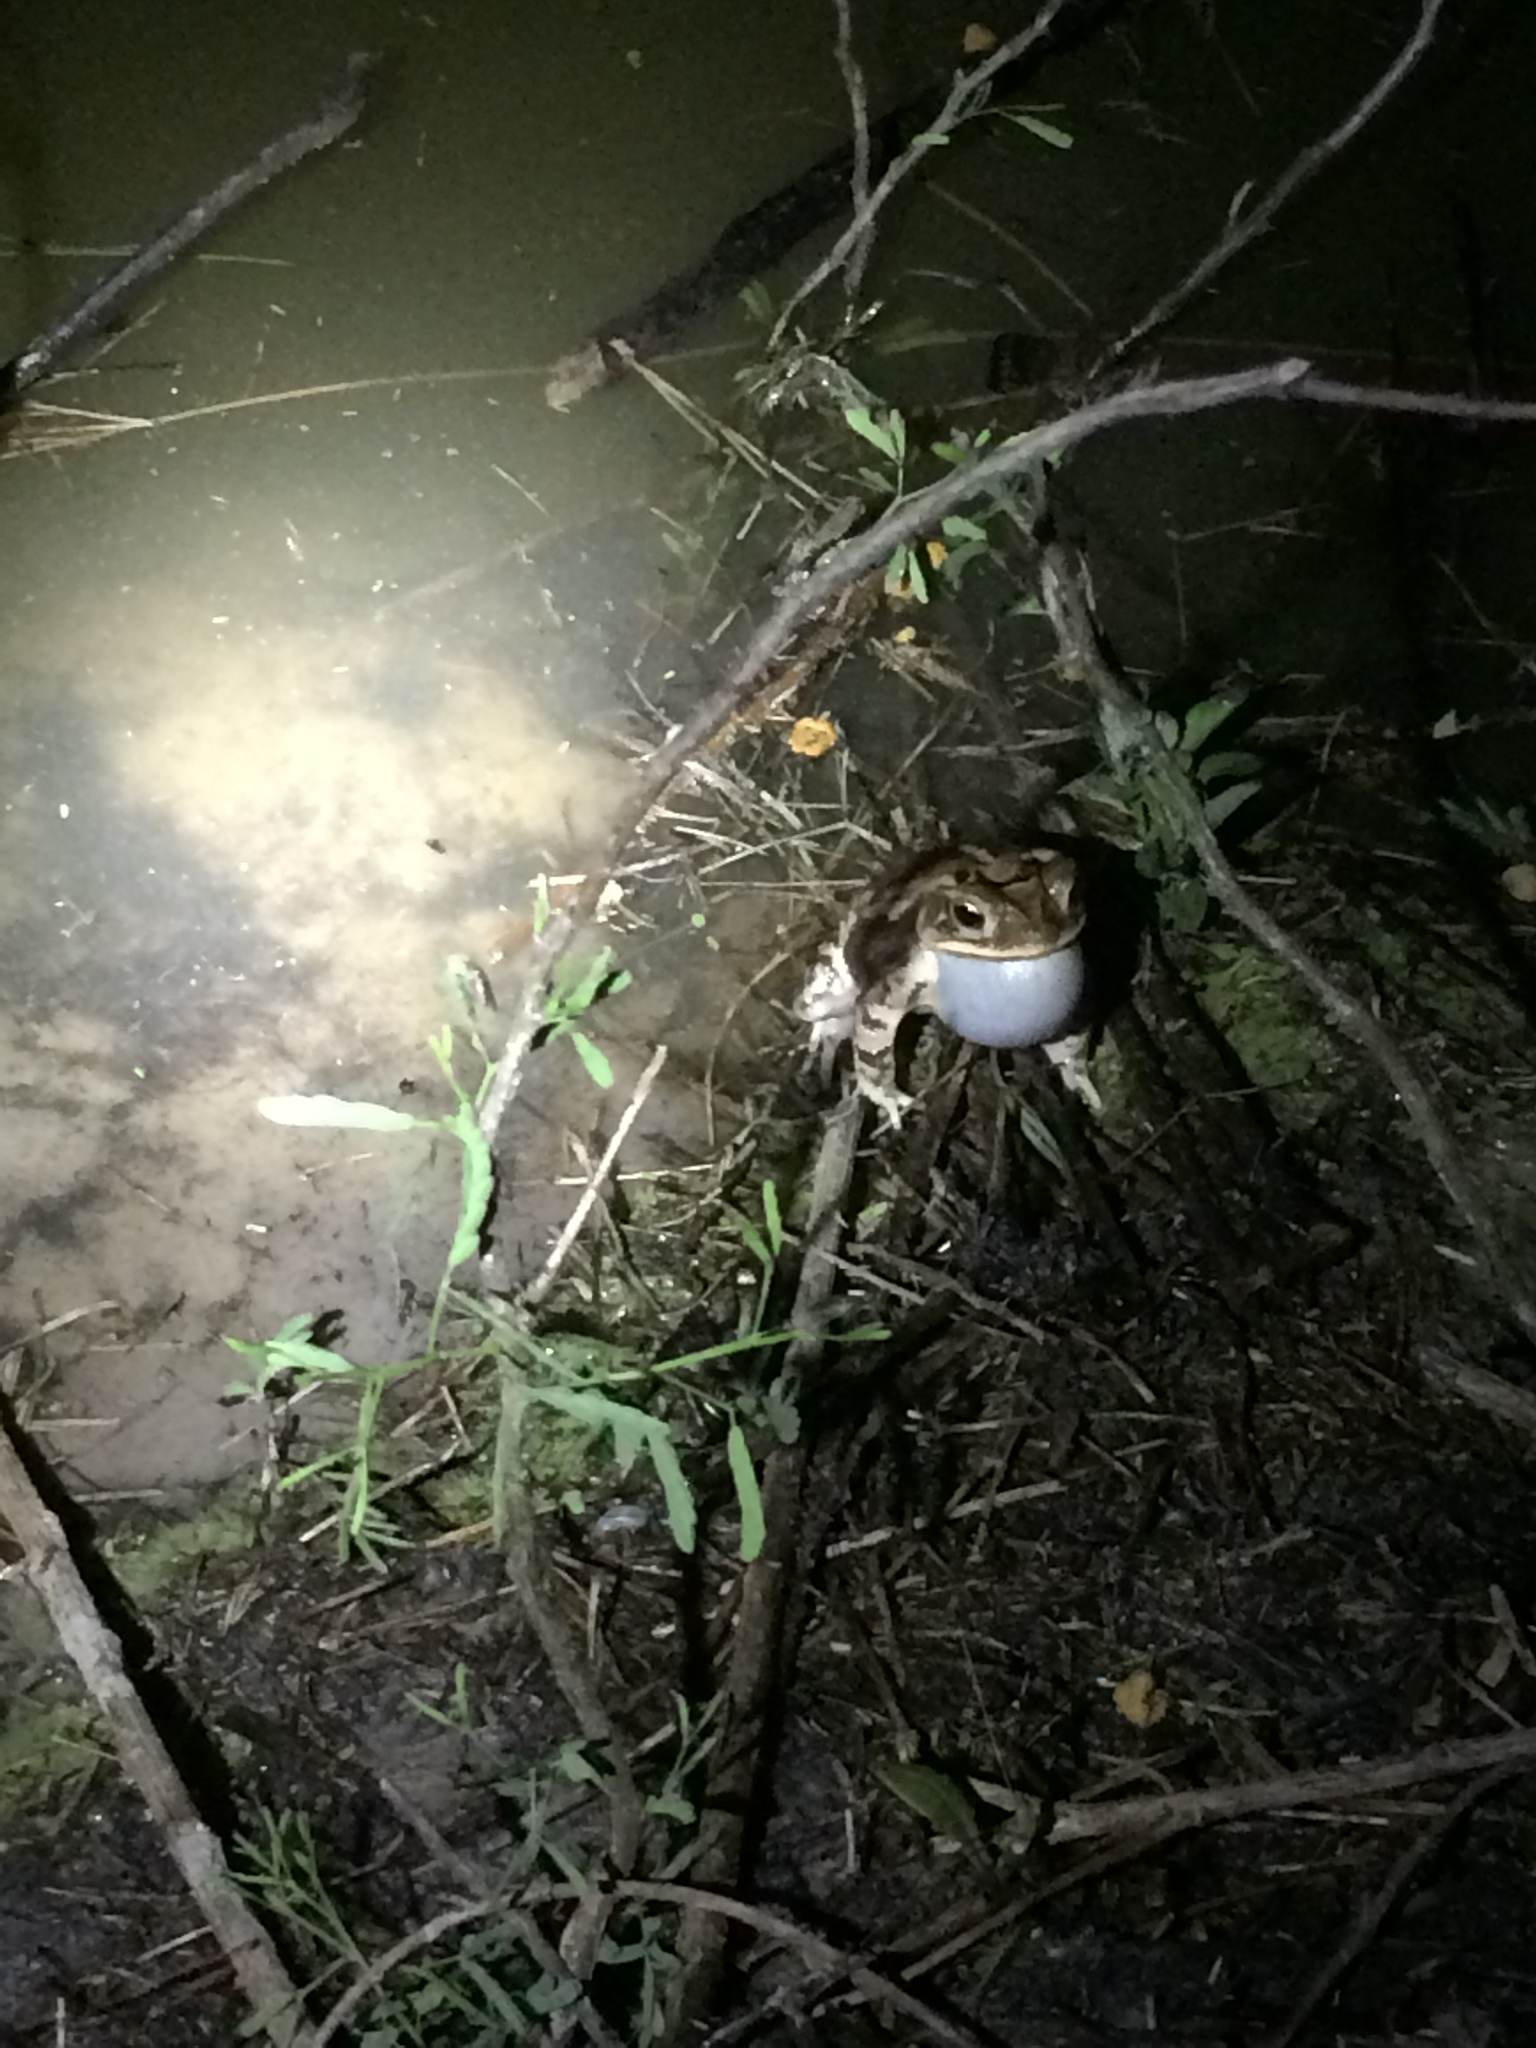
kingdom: Animalia
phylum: Chordata
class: Amphibia
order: Anura
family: Bufonidae
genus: Incilius
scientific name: Incilius nebulifer
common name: Gulf coast toad
